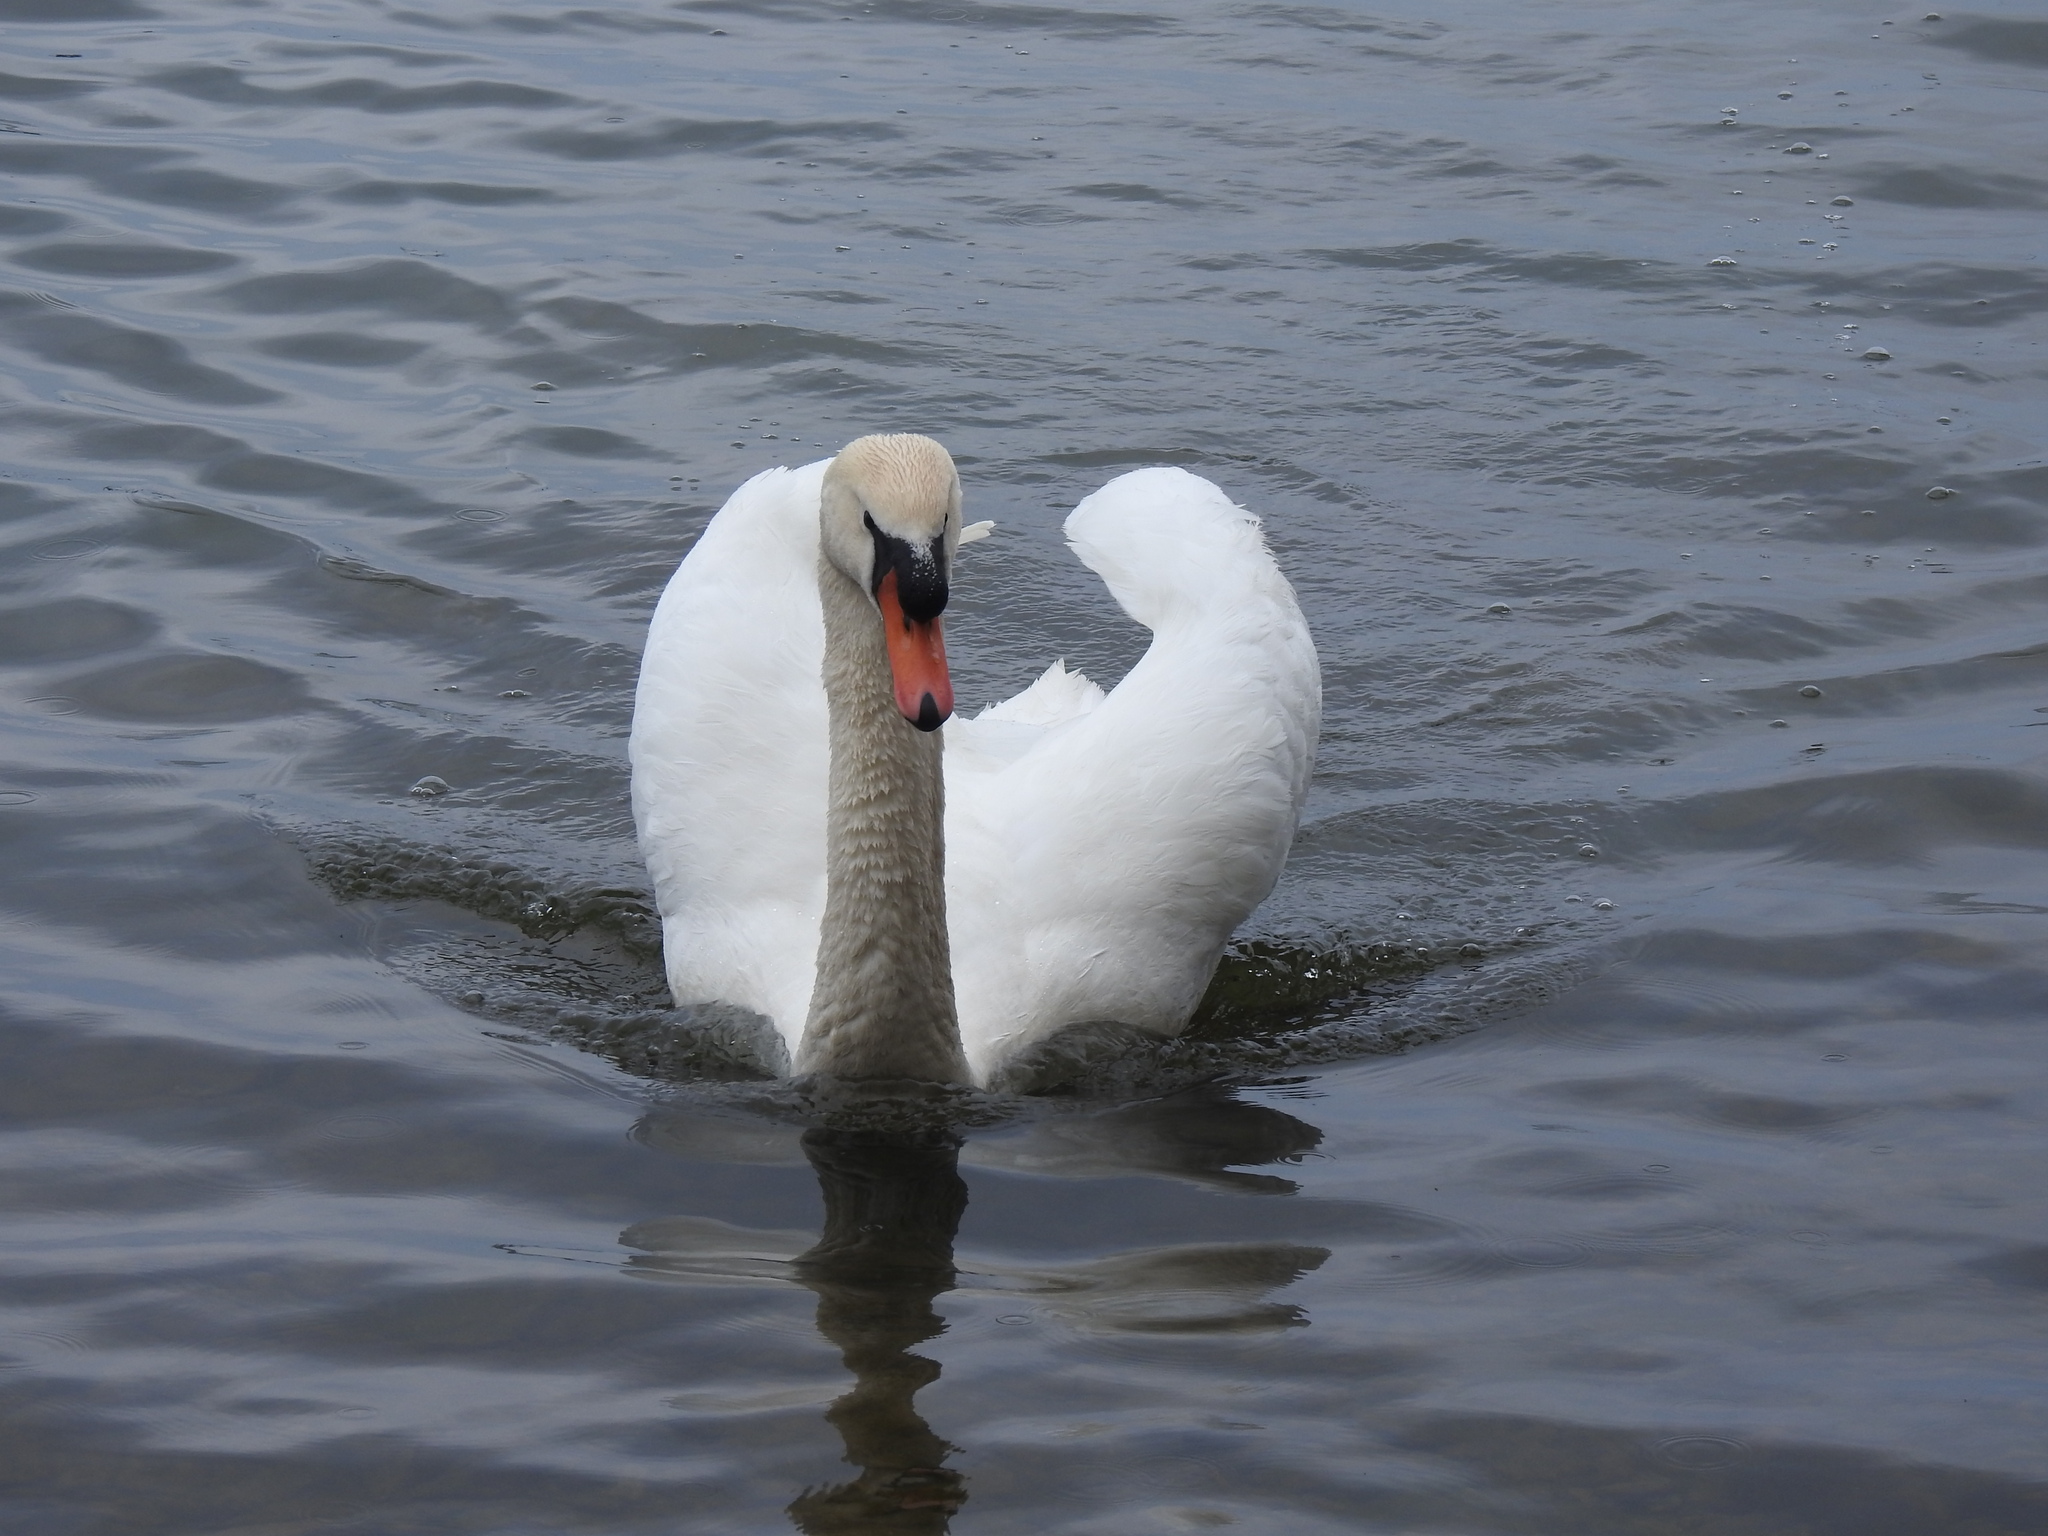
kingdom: Animalia
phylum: Chordata
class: Aves
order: Anseriformes
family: Anatidae
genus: Cygnus
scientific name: Cygnus olor
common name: Mute swan
